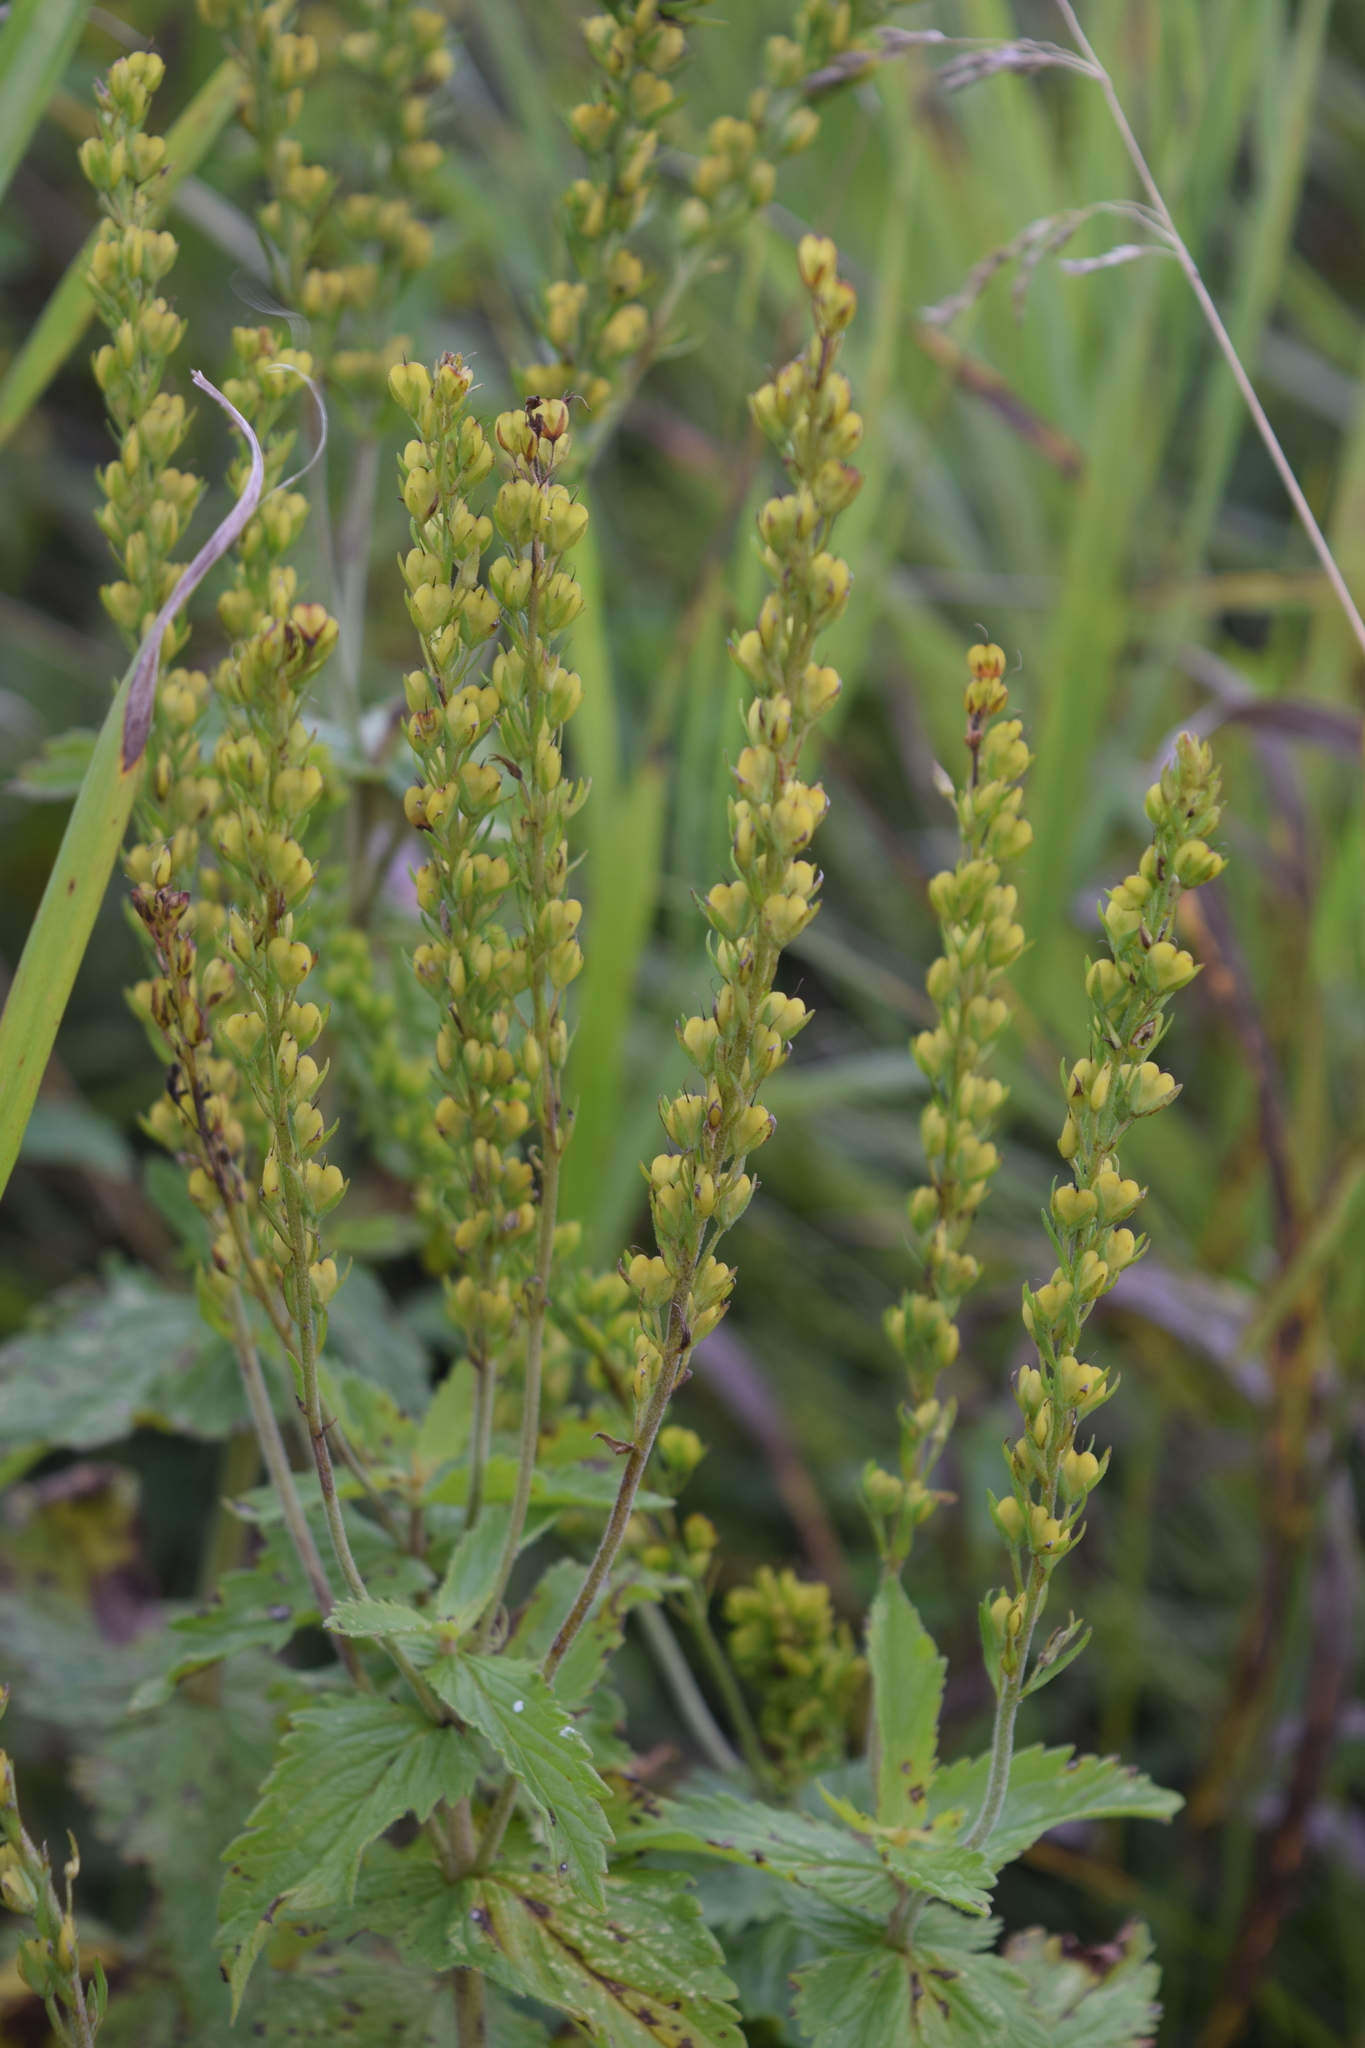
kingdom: Plantae
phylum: Tracheophyta
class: Magnoliopsida
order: Lamiales
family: Plantaginaceae
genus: Veronica
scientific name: Veronica teucrium
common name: Large speedwell
